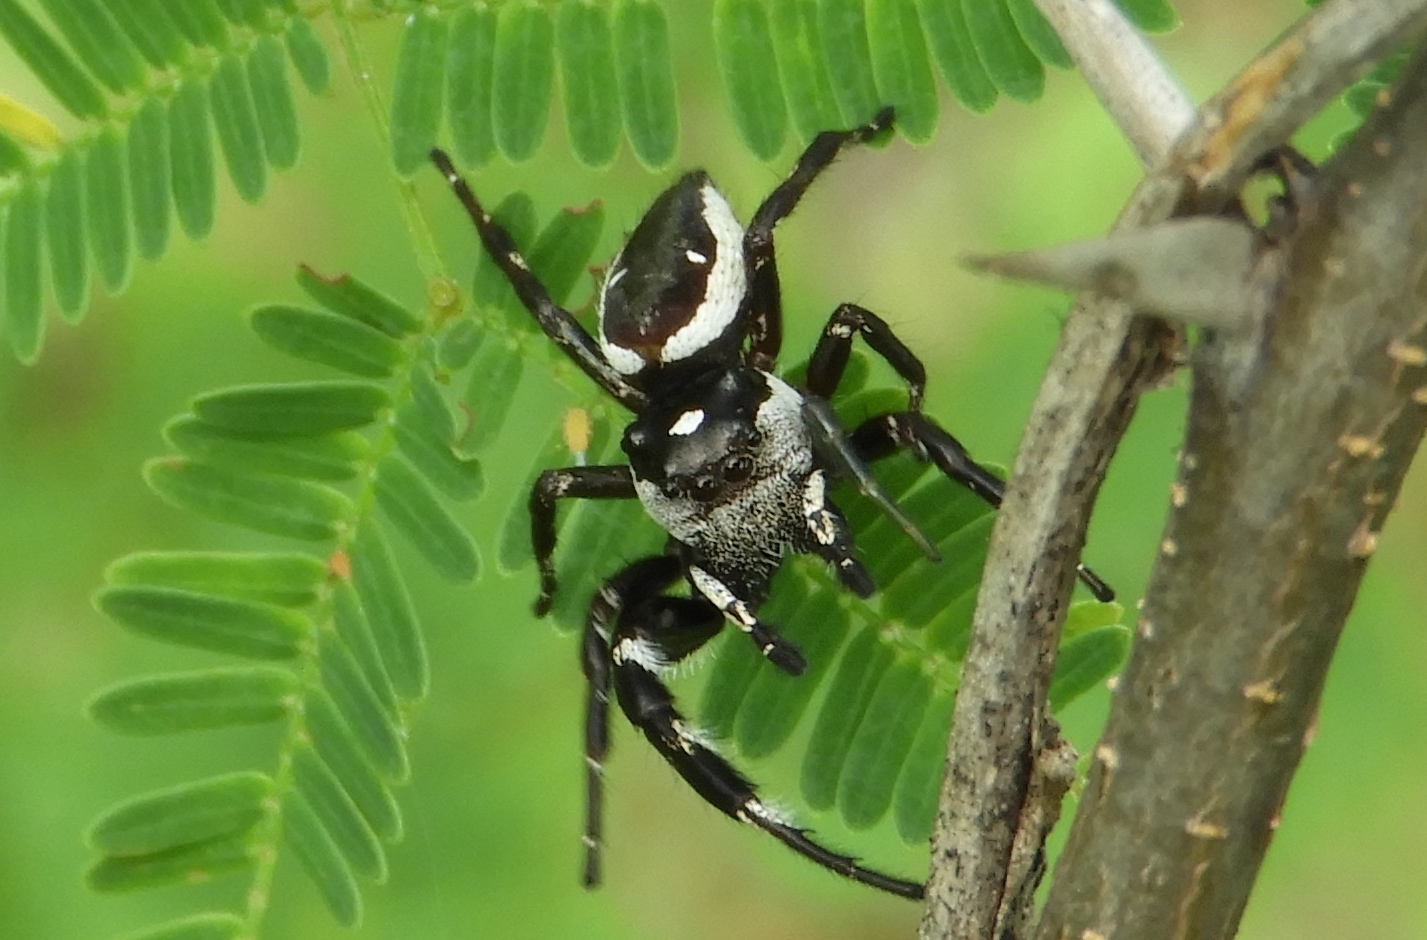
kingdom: Animalia
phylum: Arthropoda
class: Arachnida
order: Araneae
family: Salticidae
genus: Dendryphantes
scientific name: Dendryphantes zygoballoides
